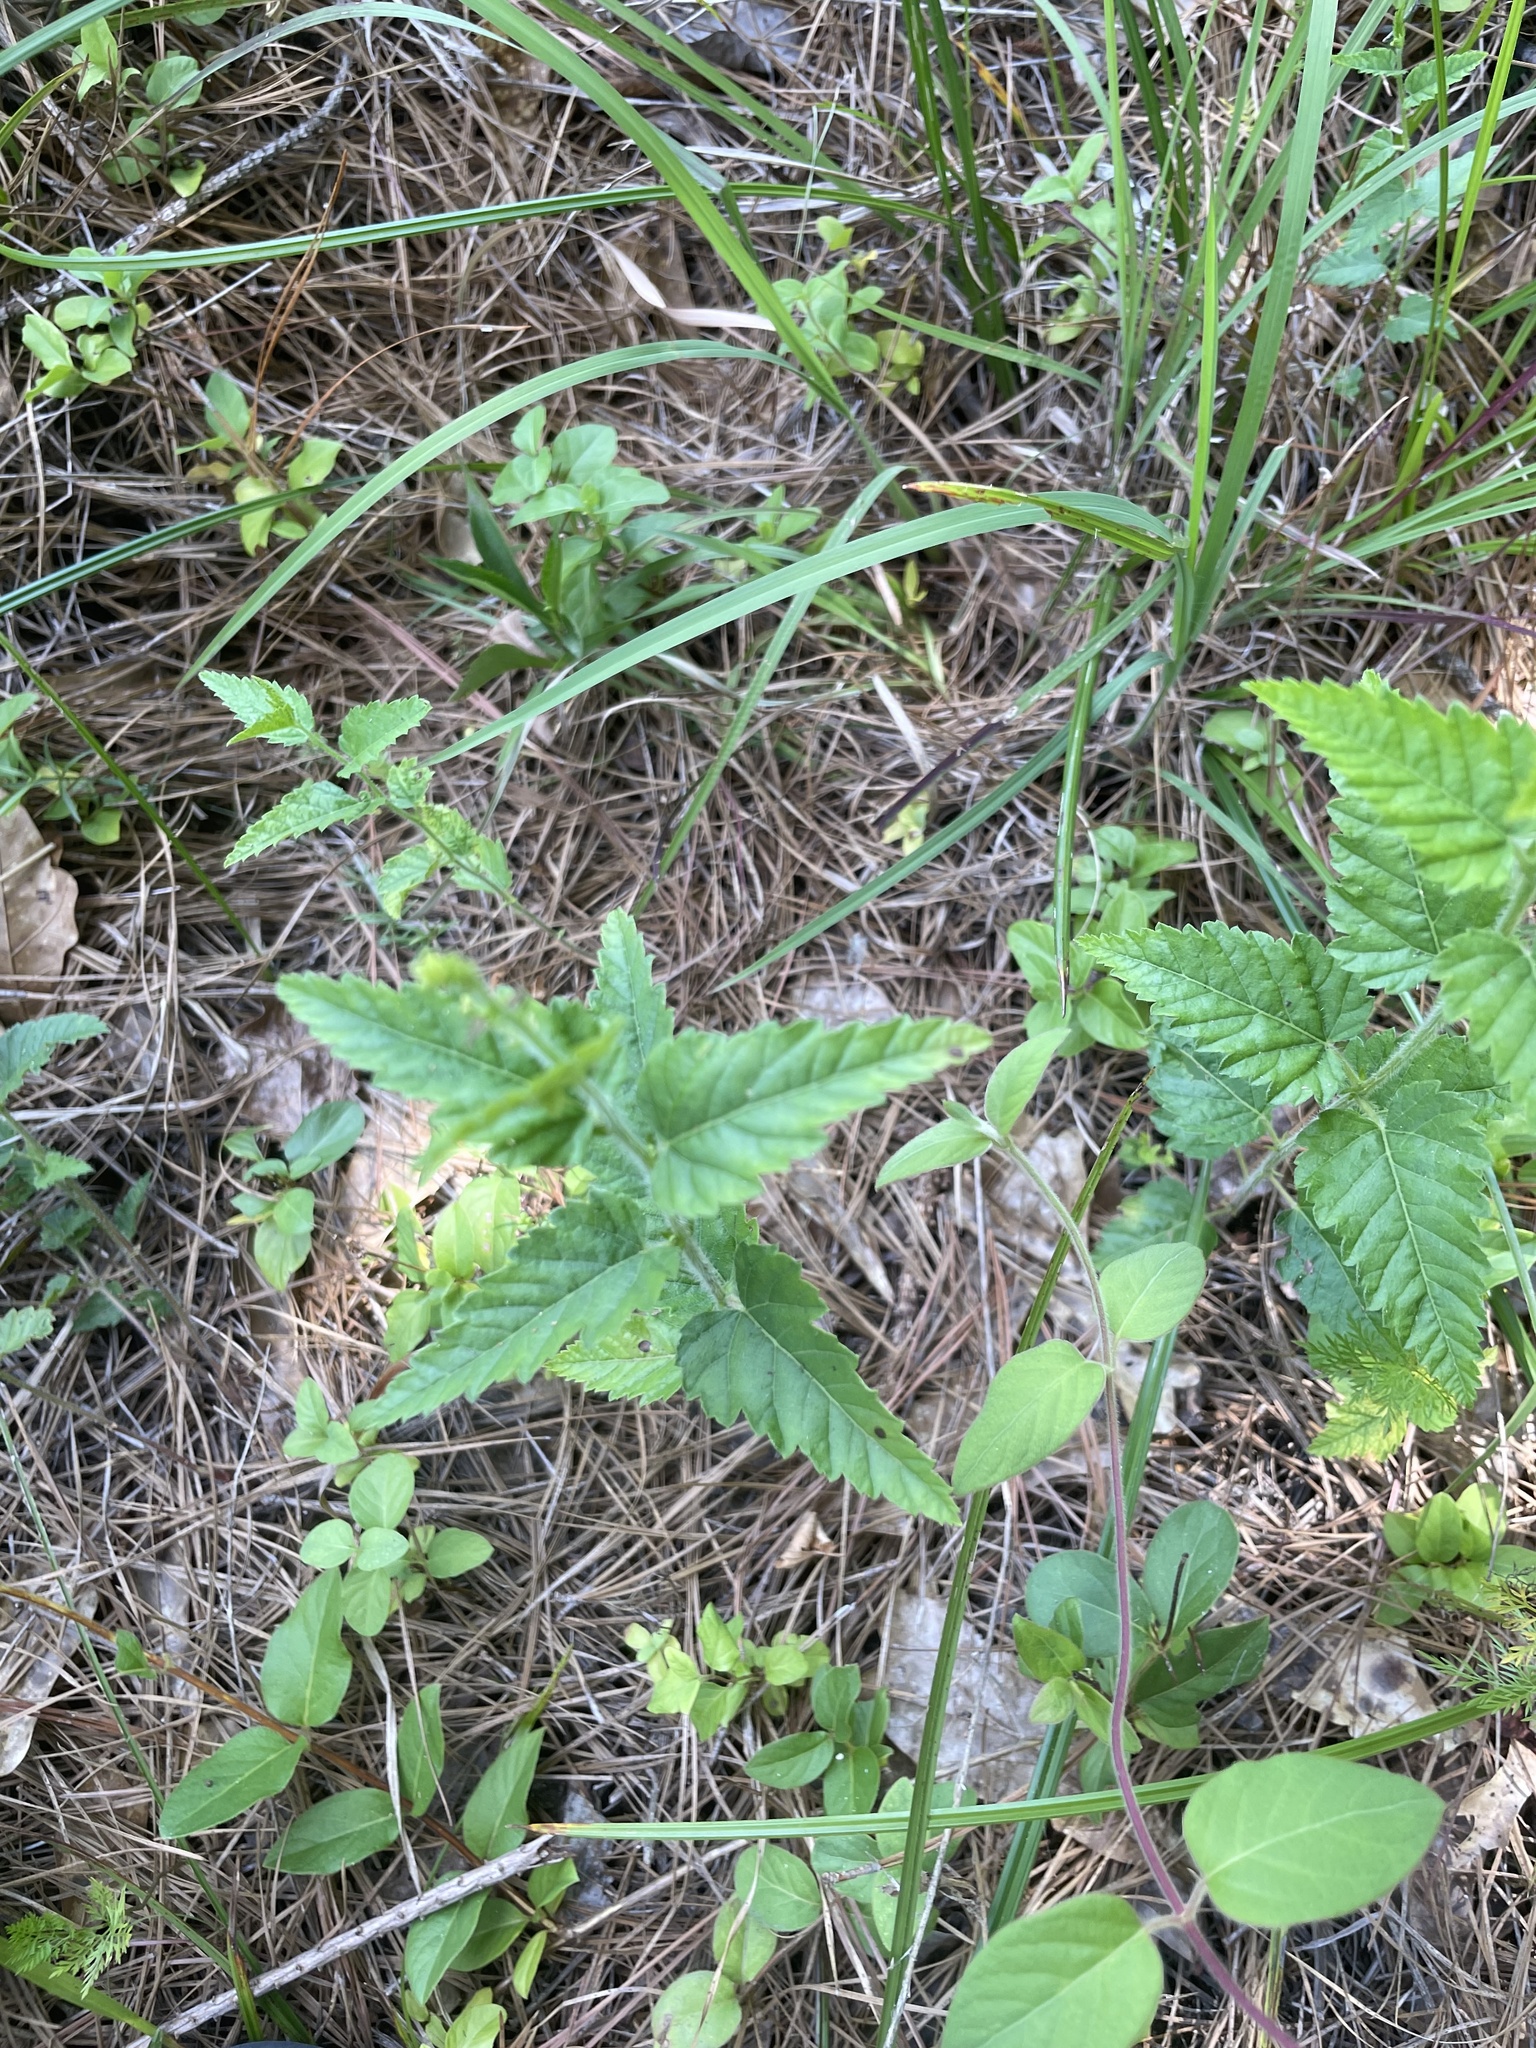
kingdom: Plantae
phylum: Tracheophyta
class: Magnoliopsida
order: Malpighiales
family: Euphorbiaceae
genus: Tragia
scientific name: Tragia urticifolia
